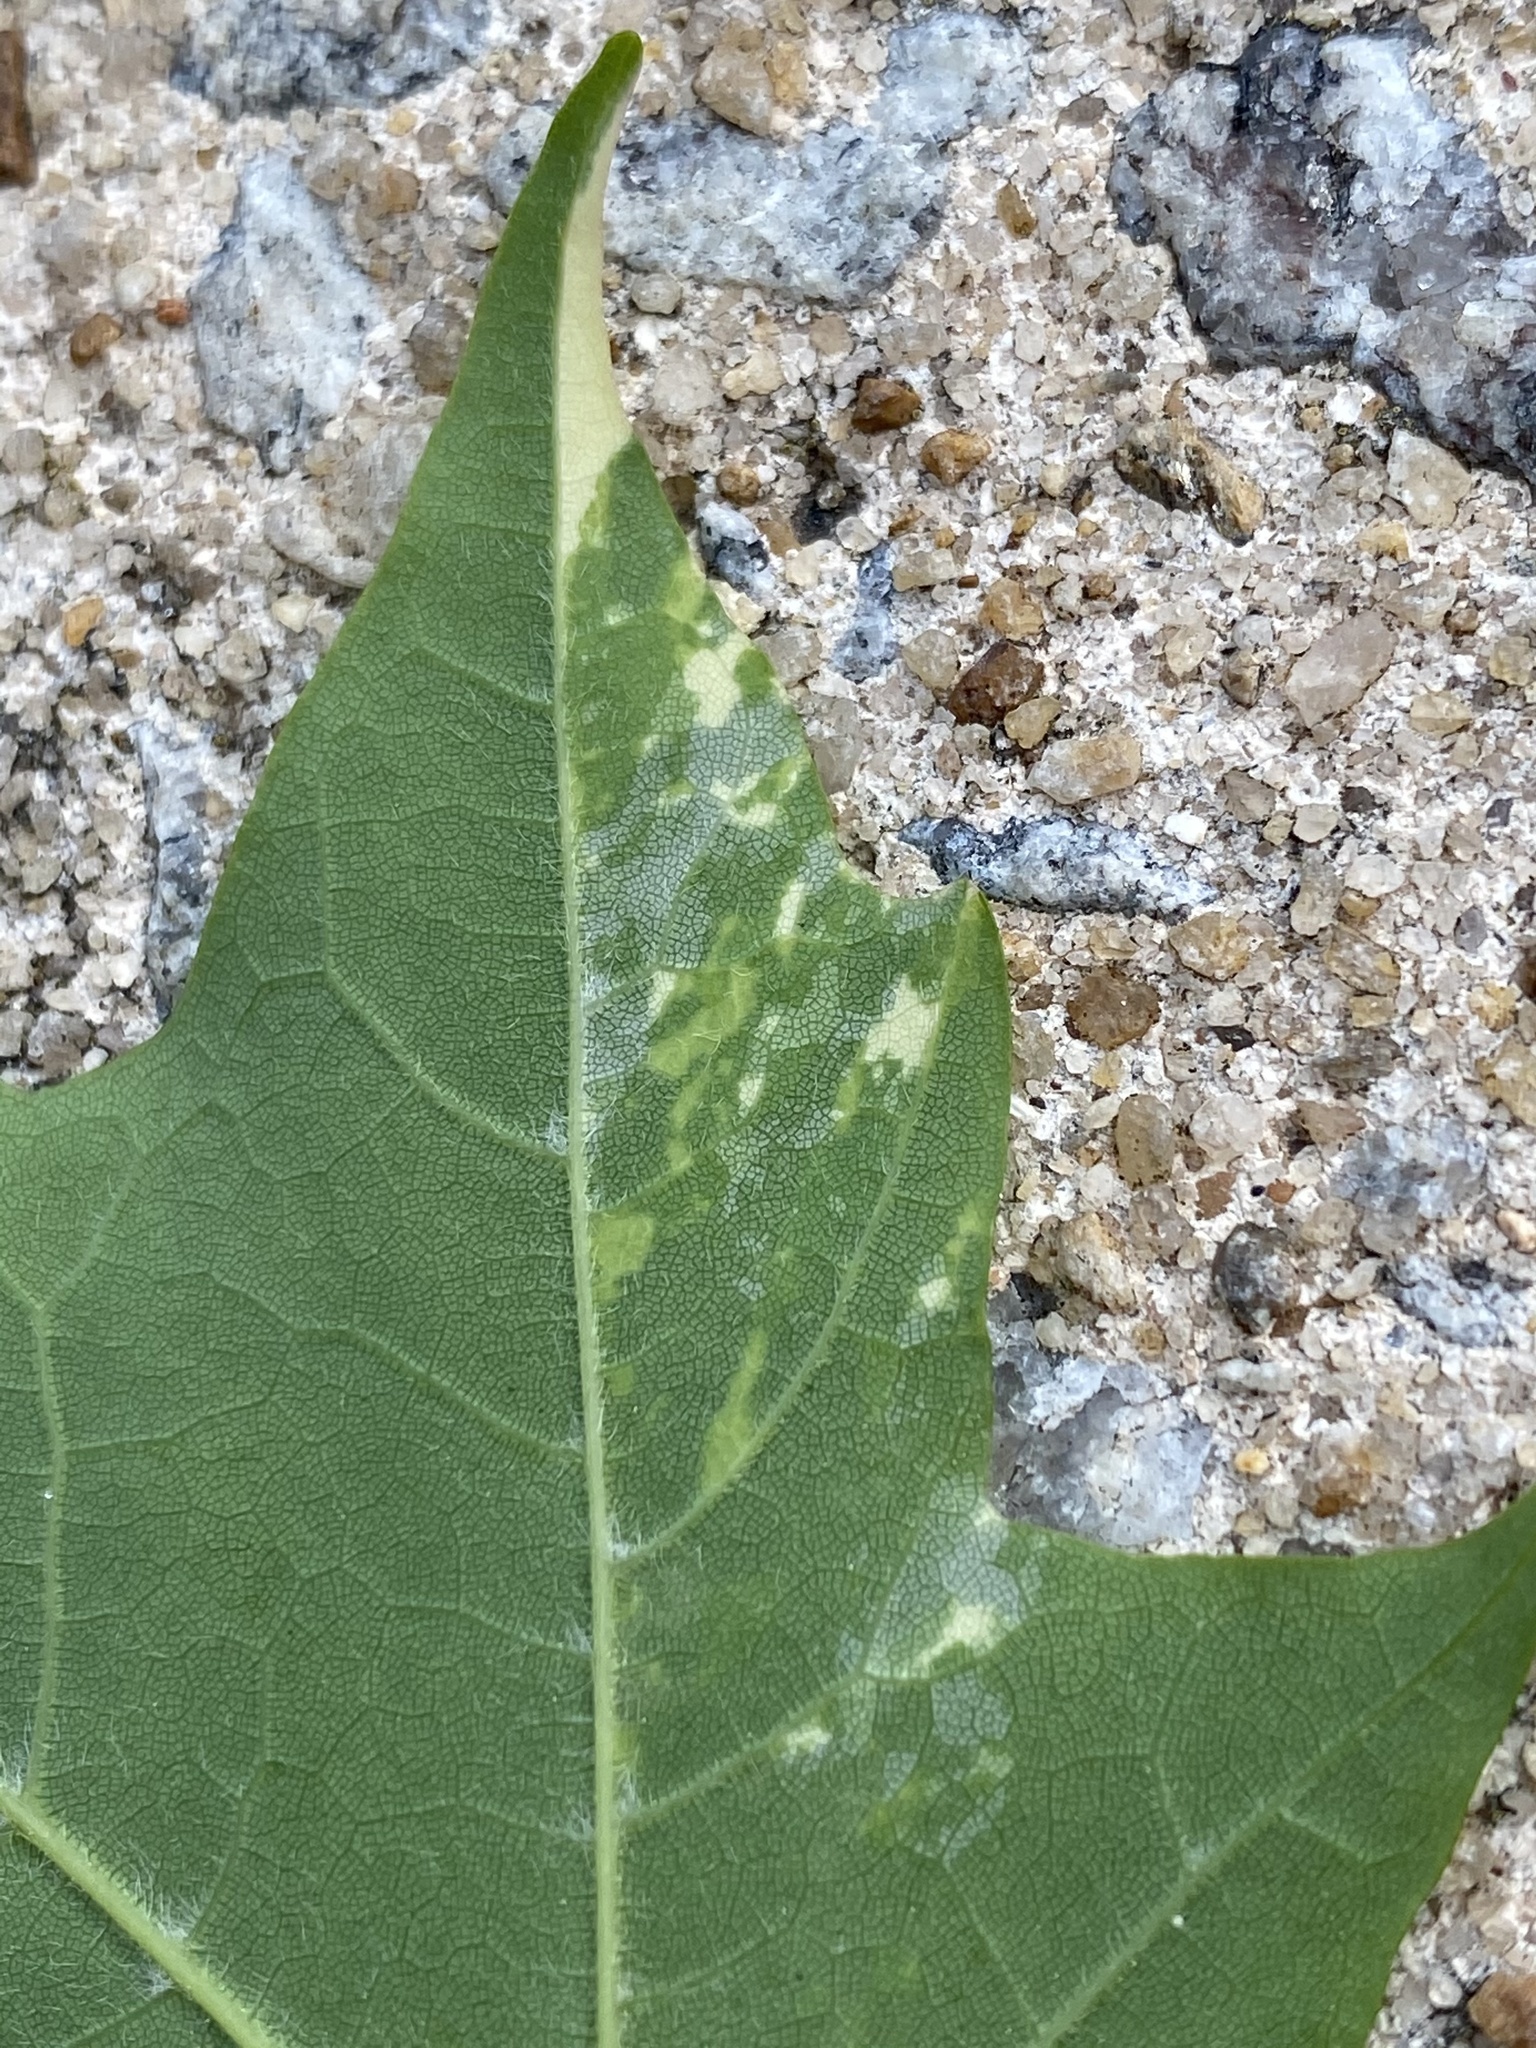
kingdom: Plantae
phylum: Tracheophyta
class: Magnoliopsida
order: Sapindales
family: Sapindaceae
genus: Acer
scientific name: Acer saccharum
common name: Sugar maple
